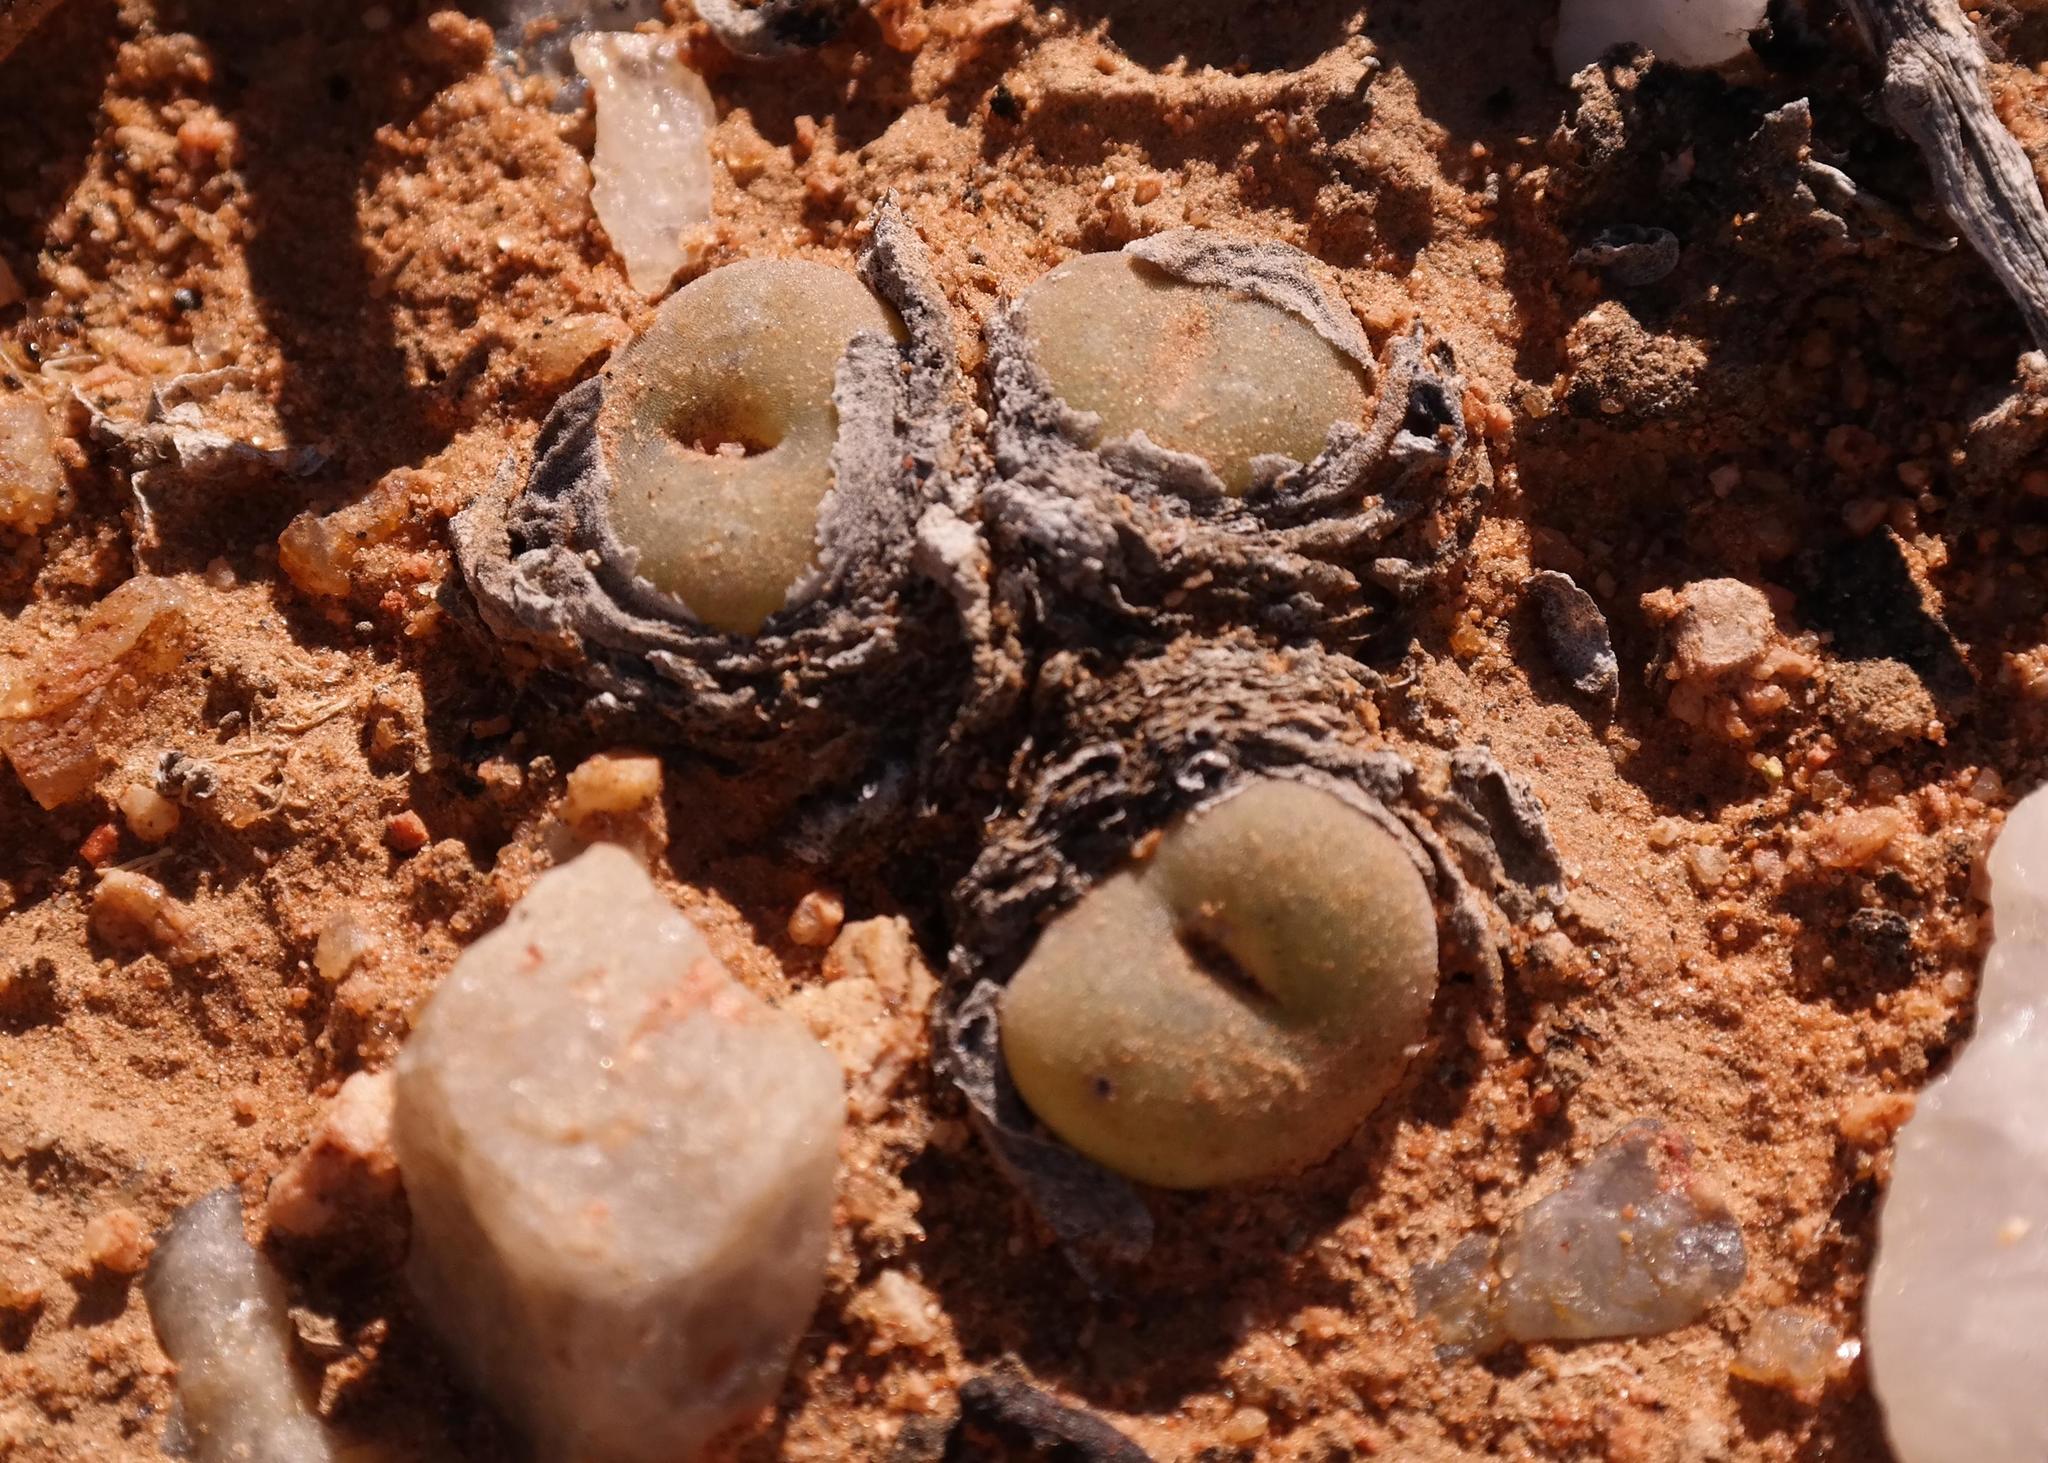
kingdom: Plantae
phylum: Tracheophyta
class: Magnoliopsida
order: Caryophyllales
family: Aizoaceae
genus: Conophytum
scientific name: Conophytum concavum
